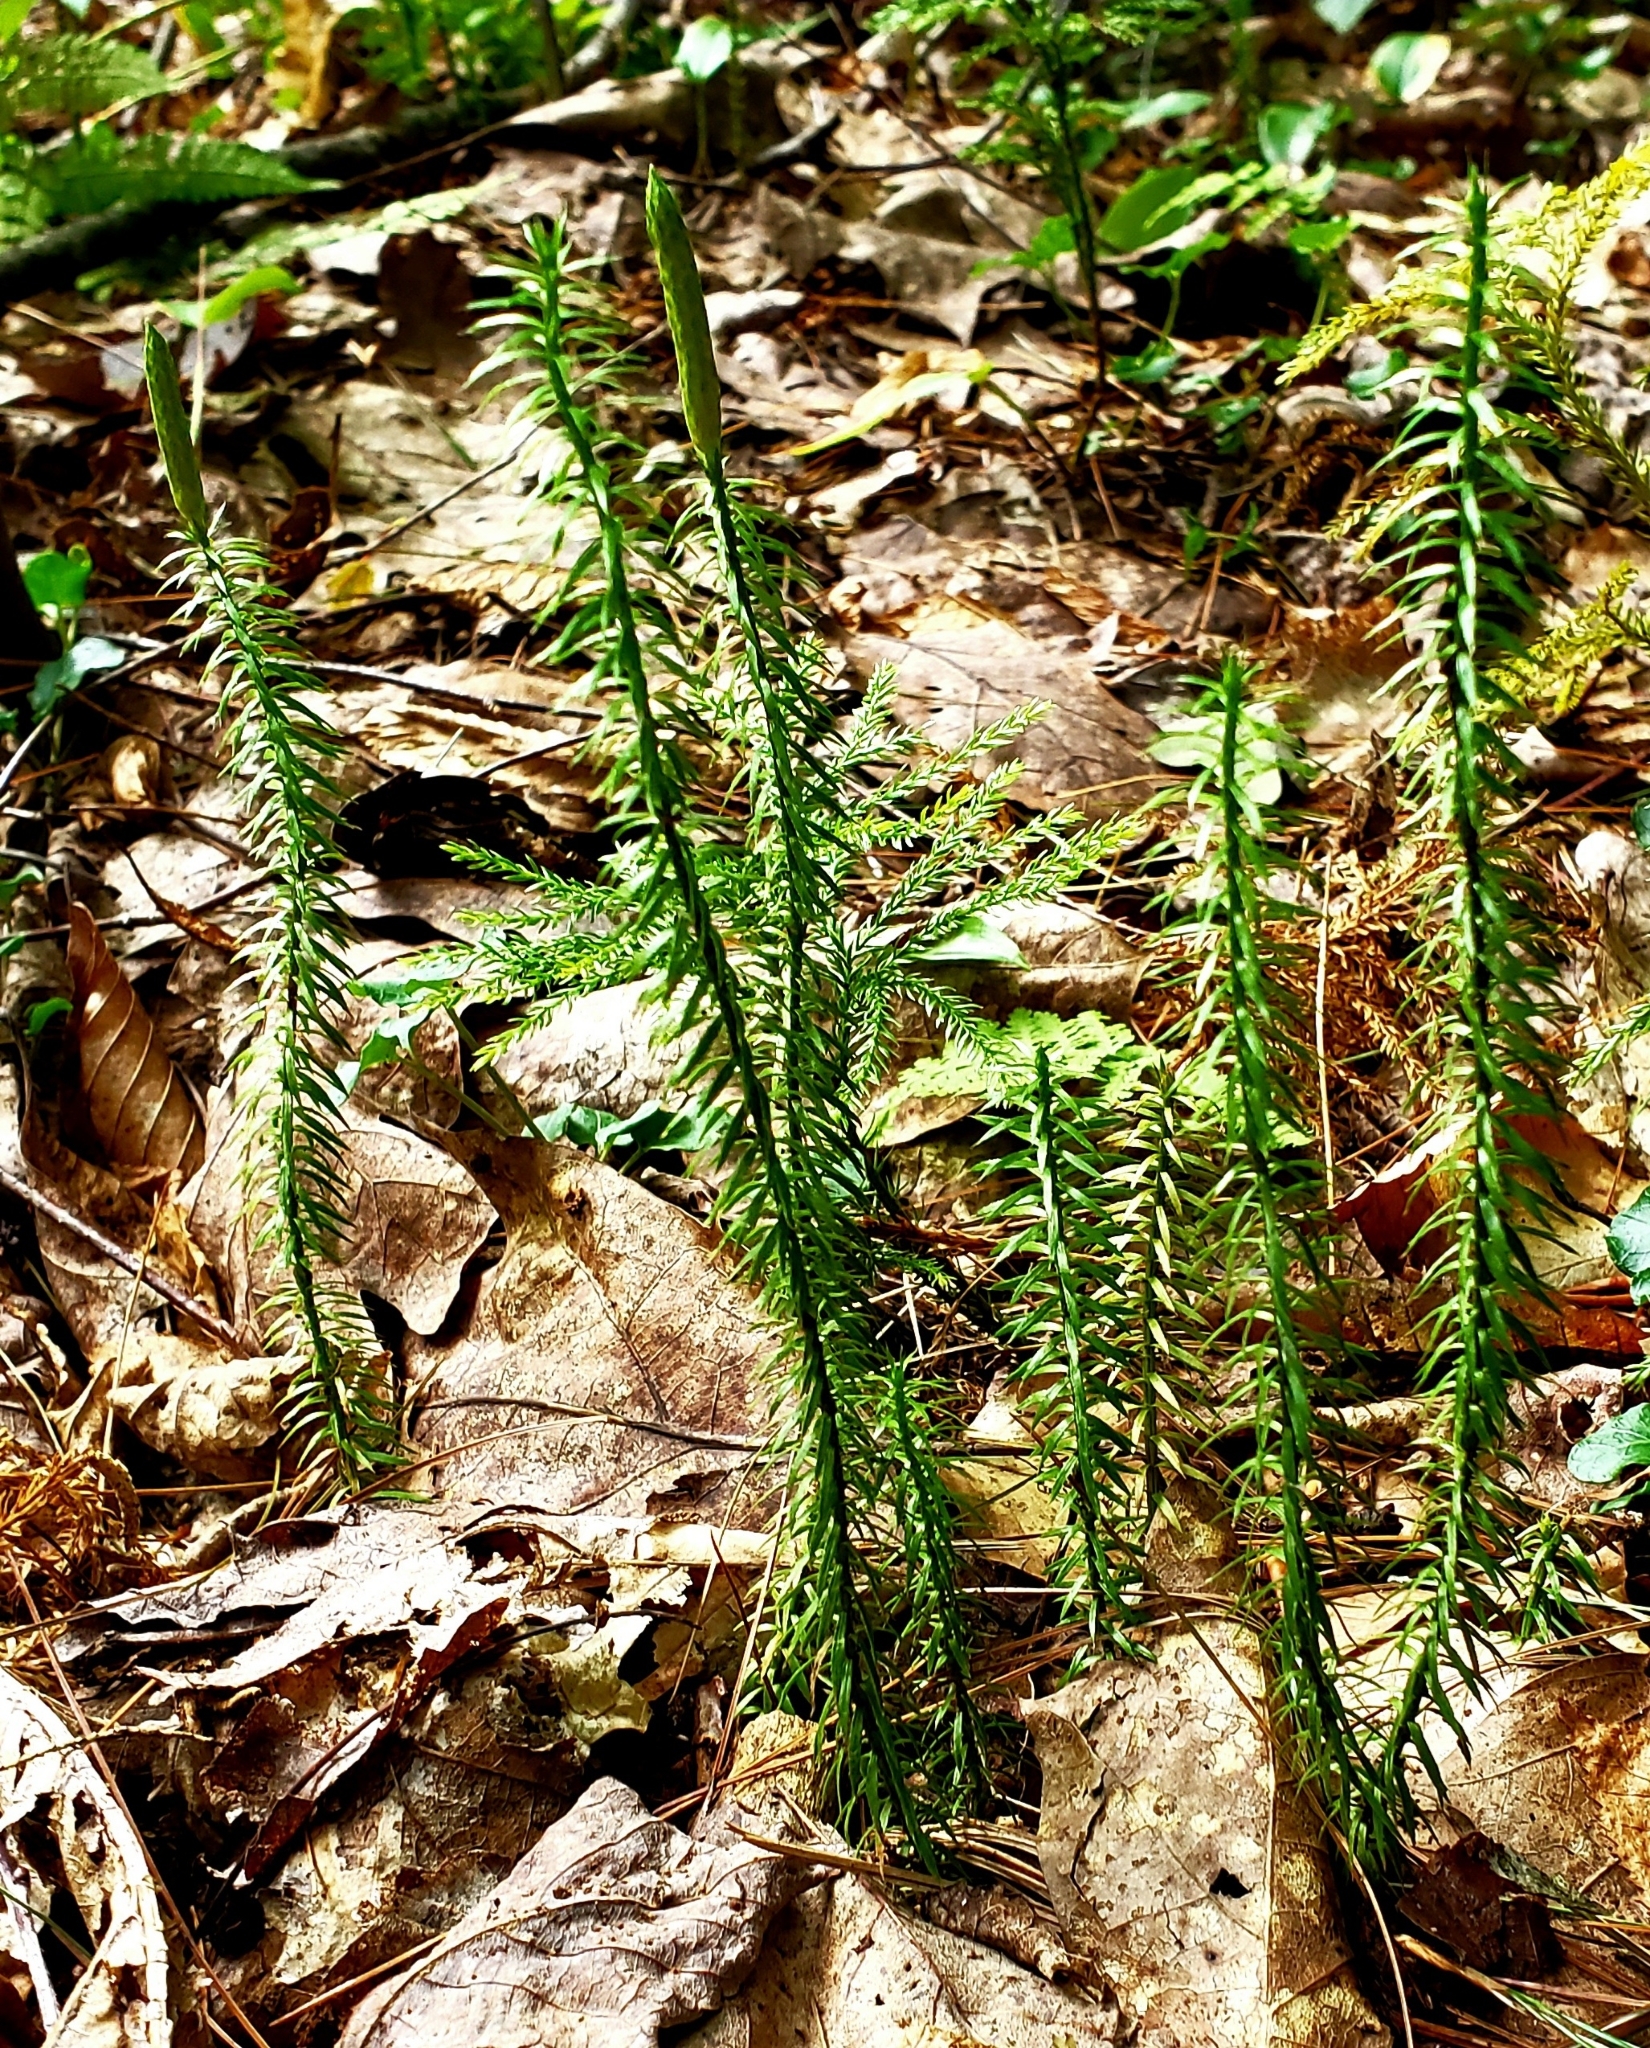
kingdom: Plantae
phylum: Tracheophyta
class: Lycopodiopsida
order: Lycopodiales
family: Lycopodiaceae
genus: Spinulum
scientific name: Spinulum annotinum
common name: Interrupted club-moss
